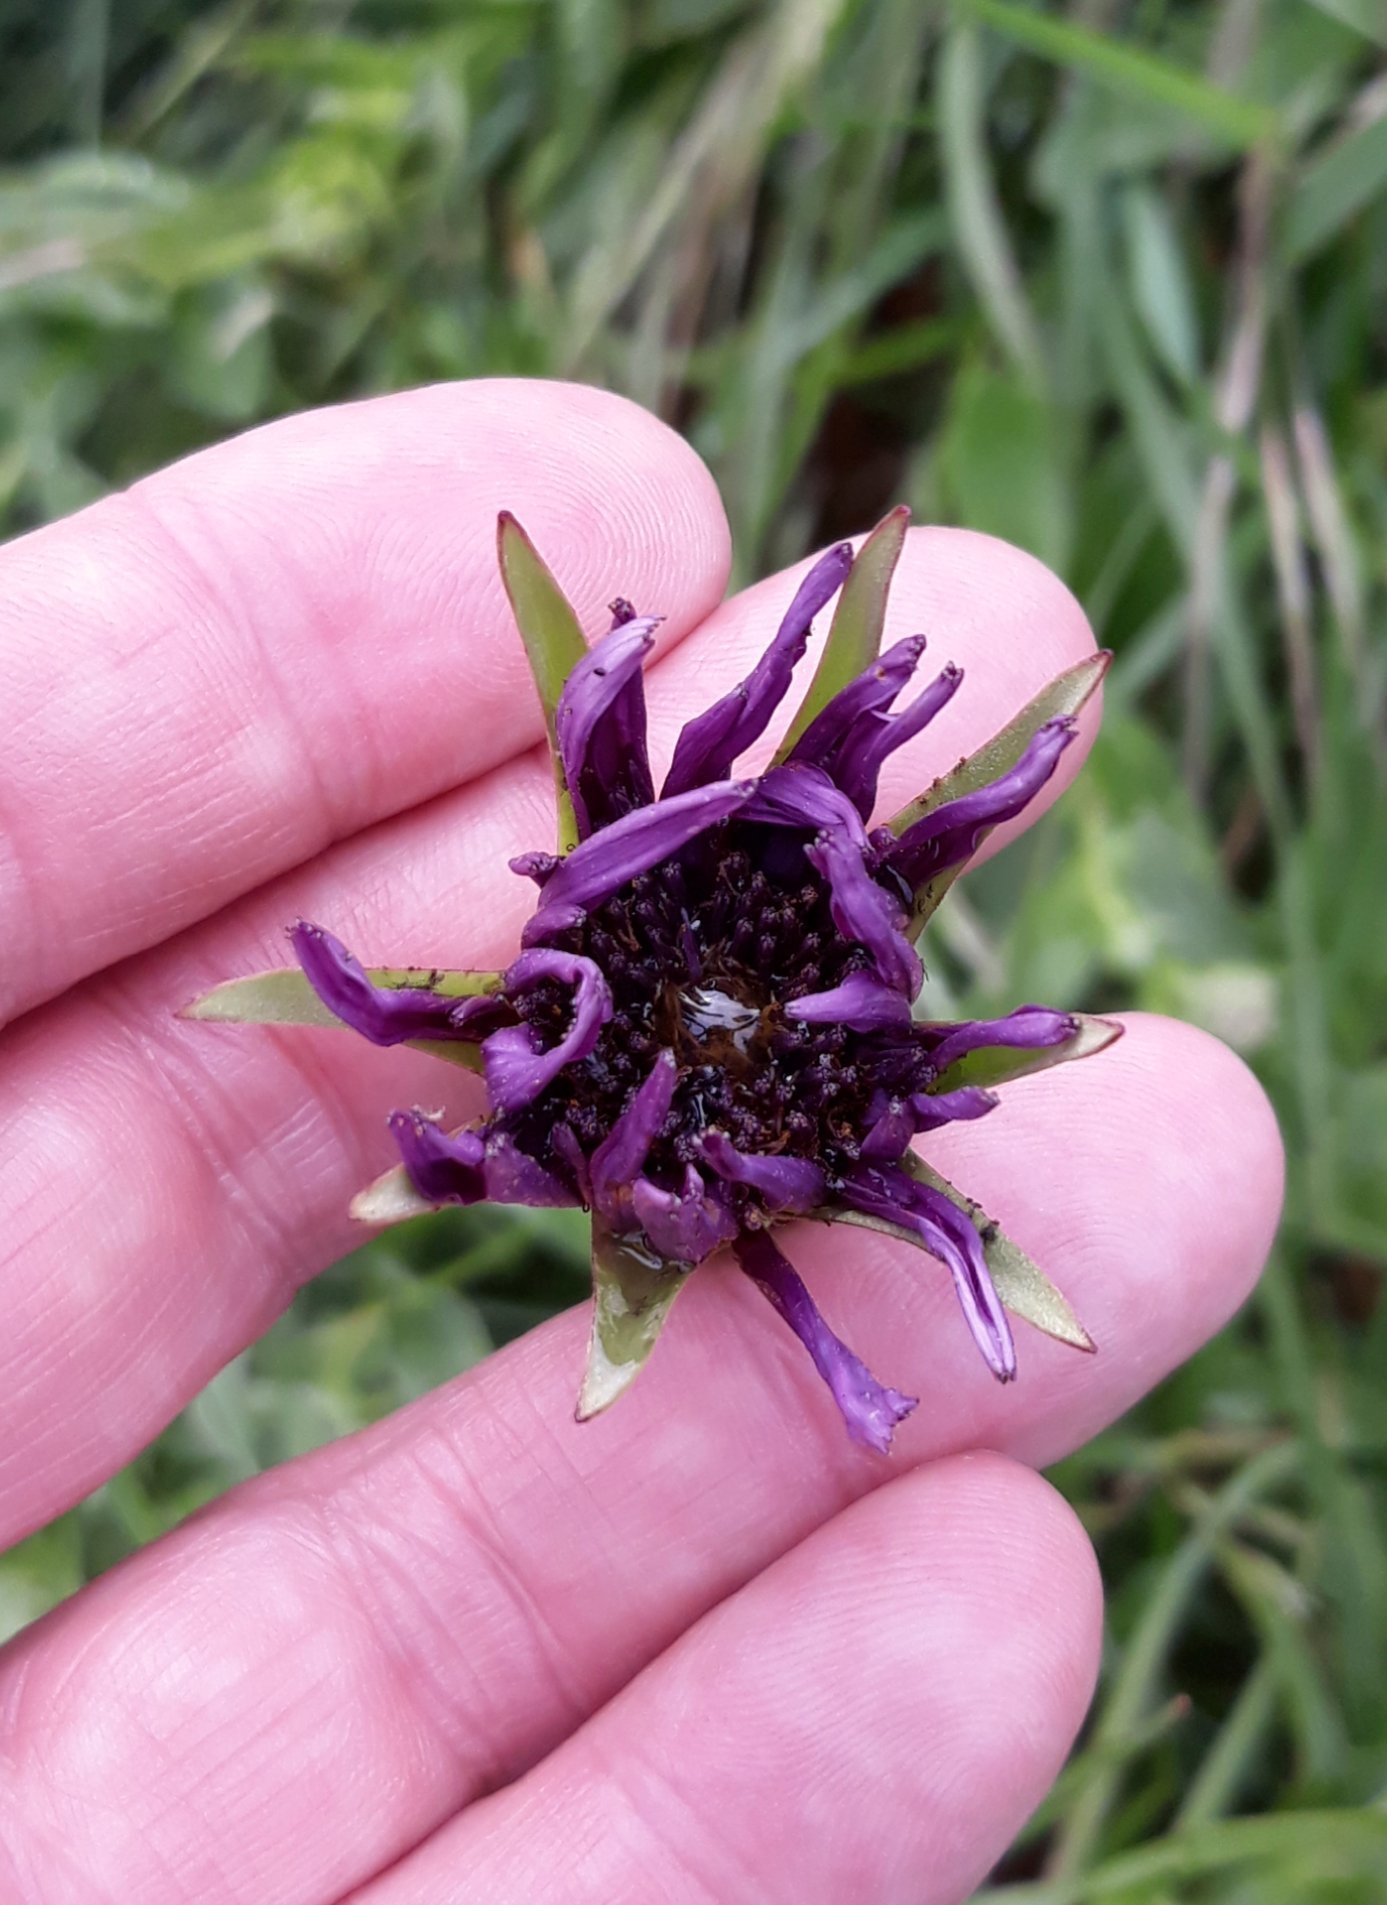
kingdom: Plantae
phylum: Tracheophyta
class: Magnoliopsida
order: Asterales
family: Asteraceae
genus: Tragopogon
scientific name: Tragopogon porrifolius
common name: Salsify
